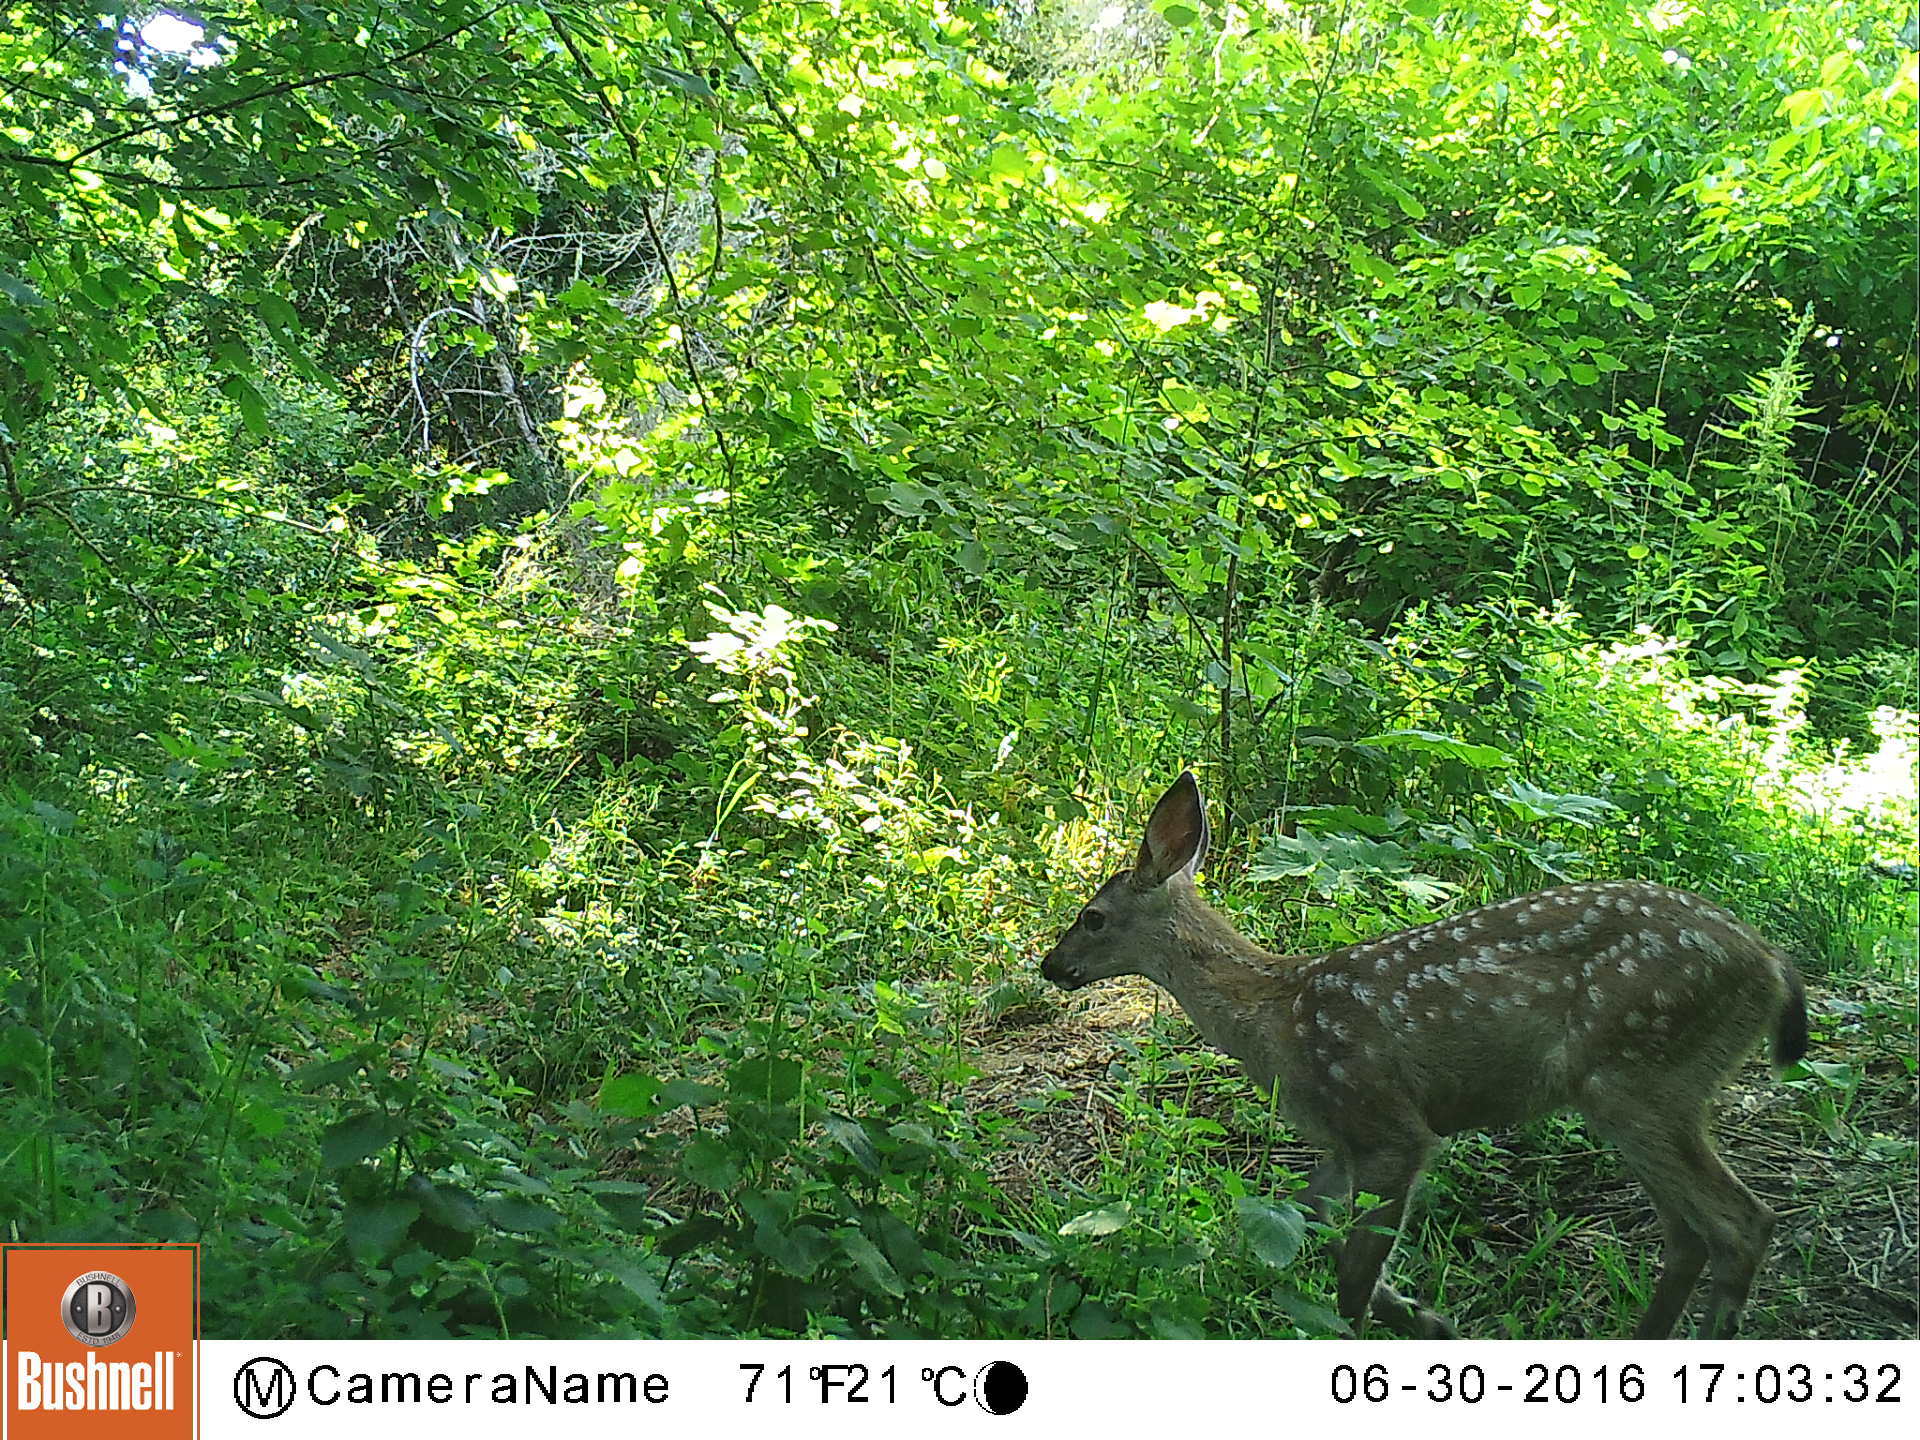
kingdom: Animalia
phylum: Chordata
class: Mammalia
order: Artiodactyla
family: Cervidae
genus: Odocoileus
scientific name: Odocoileus hemionus
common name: Mule deer
